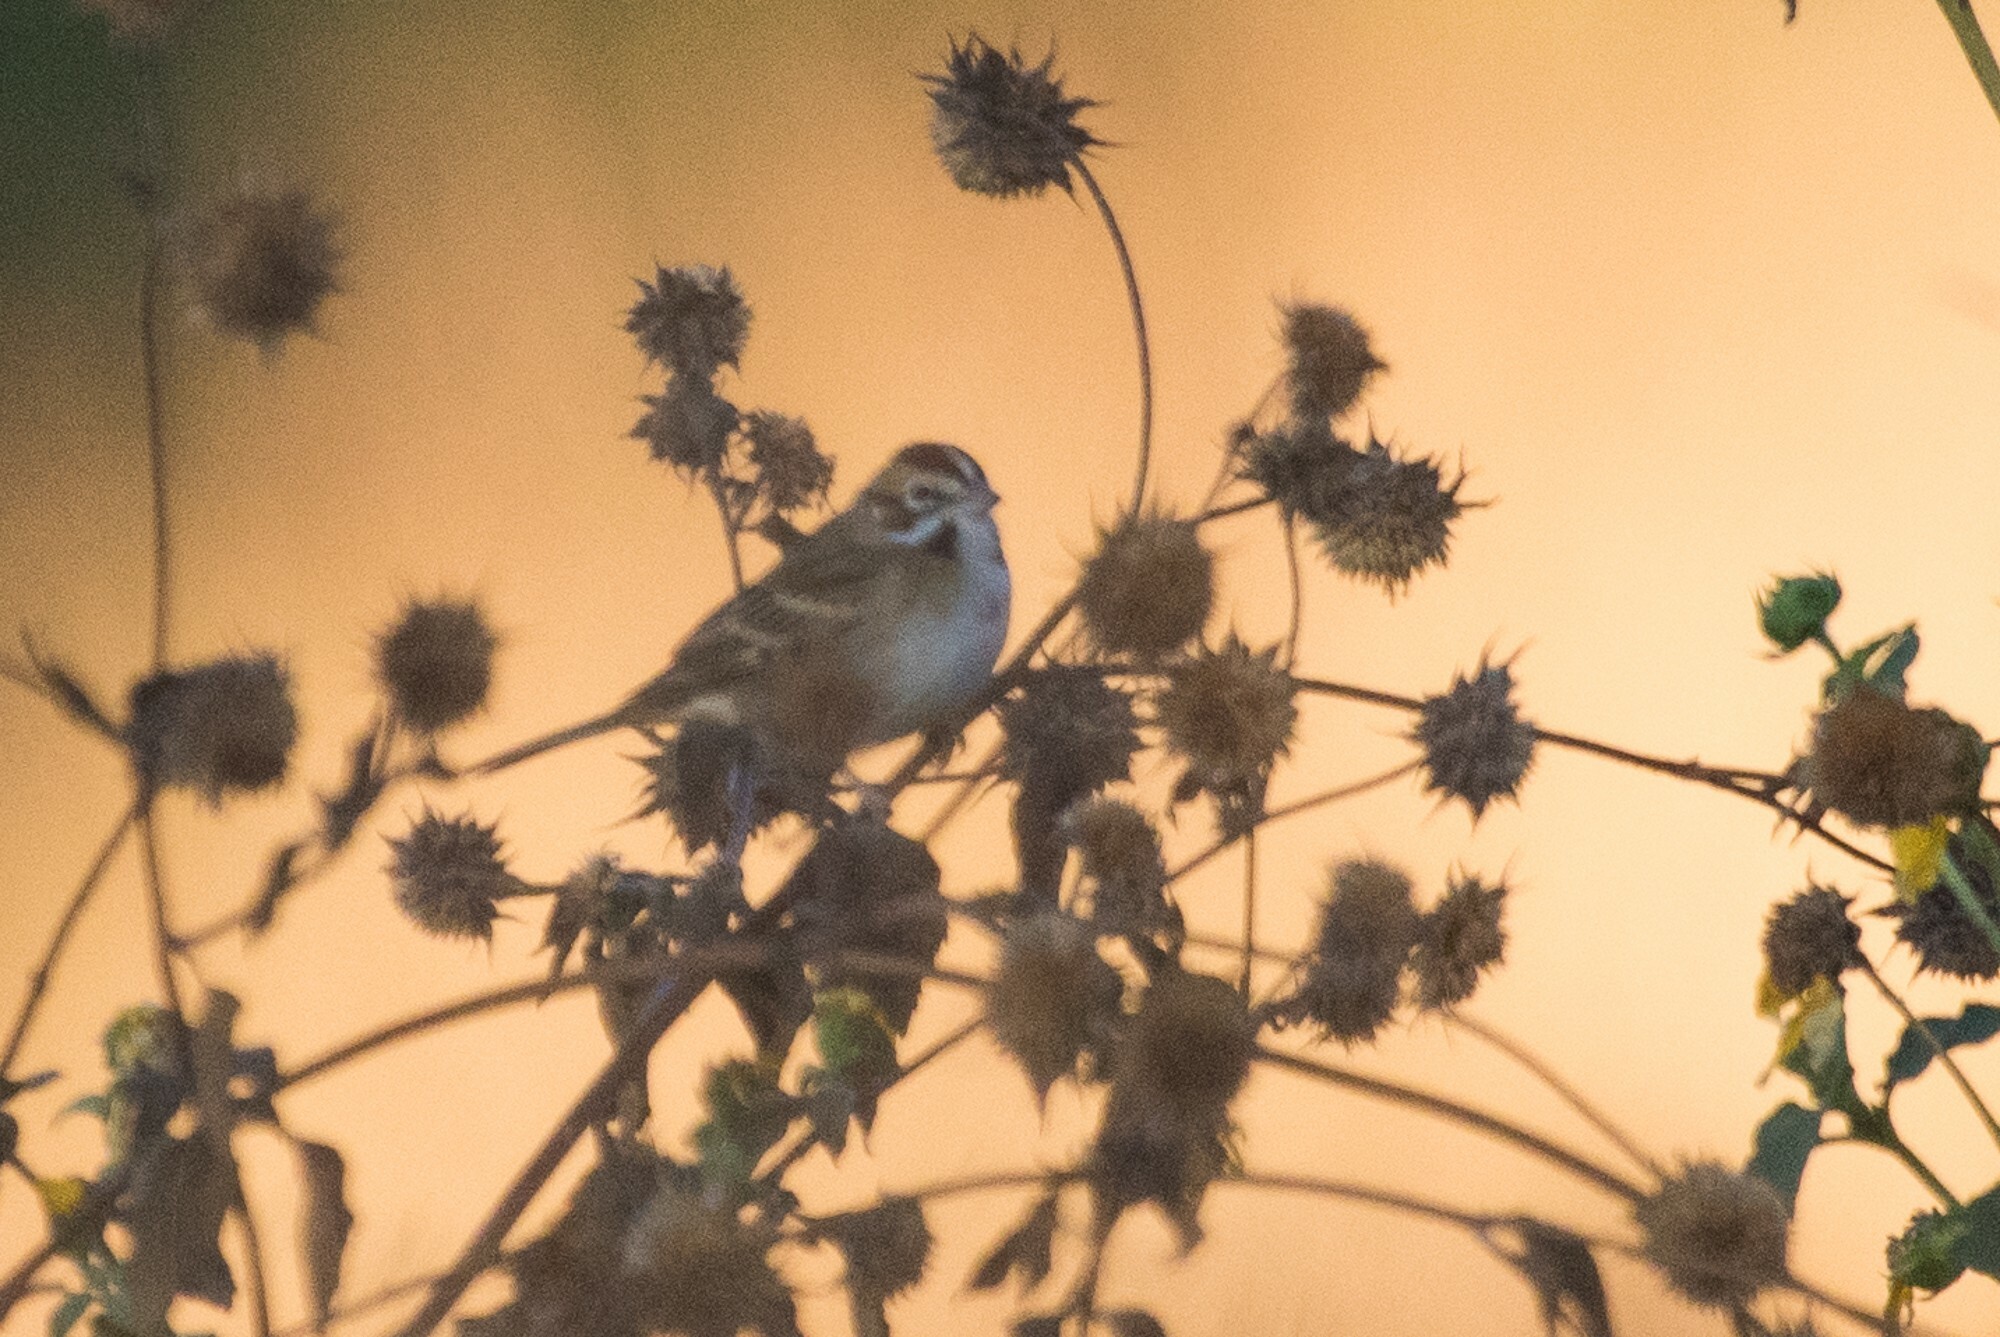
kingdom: Animalia
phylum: Chordata
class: Aves
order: Passeriformes
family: Passerellidae
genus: Chondestes
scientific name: Chondestes grammacus
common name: Lark sparrow
